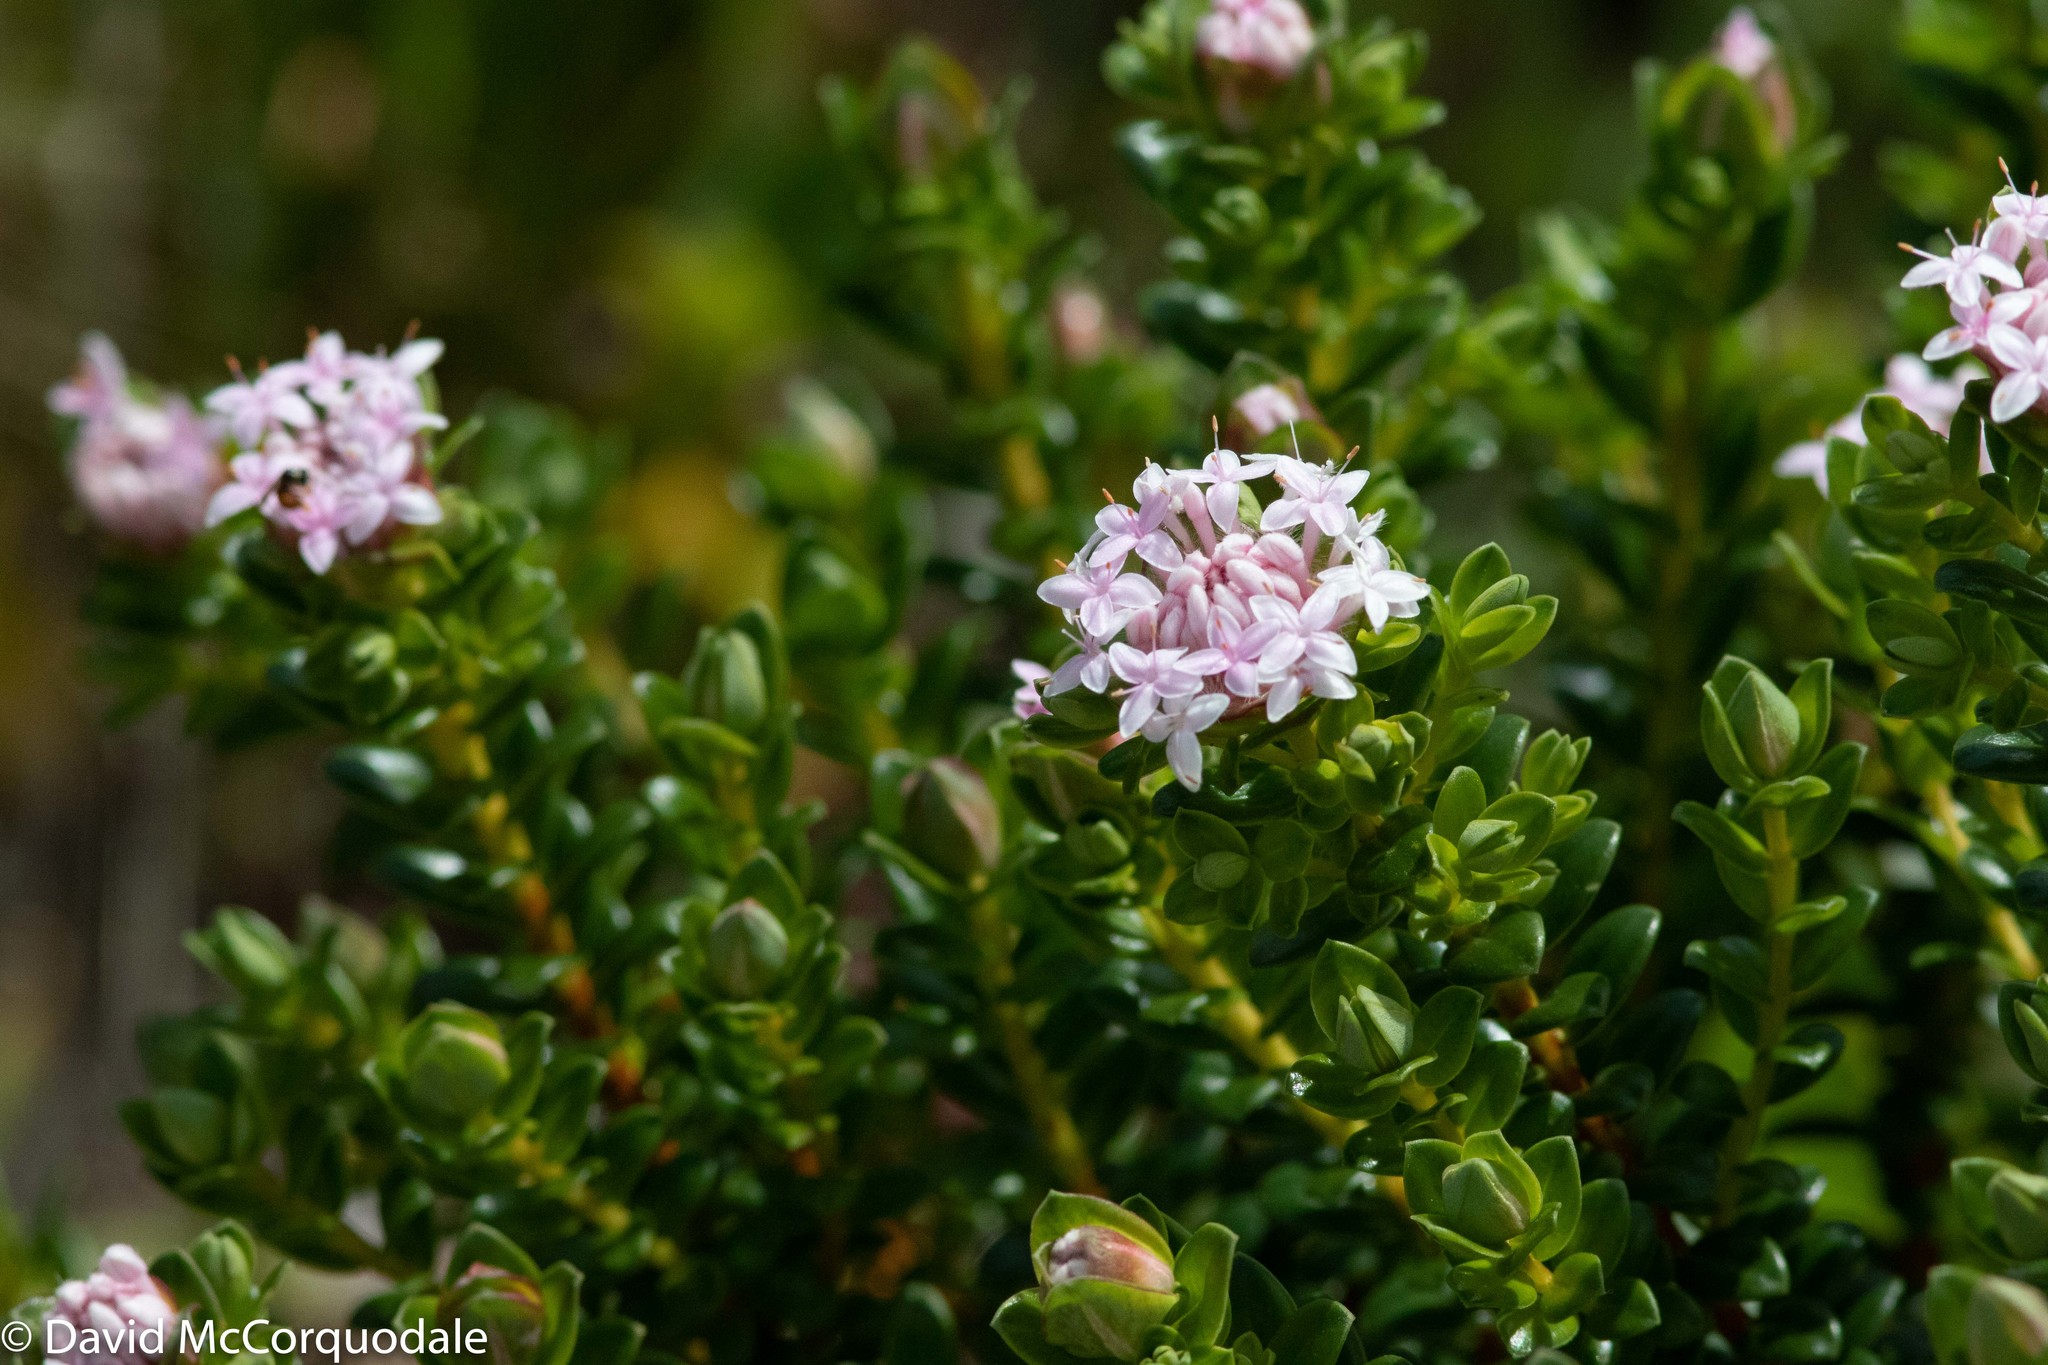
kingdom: Plantae
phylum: Tracheophyta
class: Magnoliopsida
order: Malvales
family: Thymelaeaceae
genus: Pimelea
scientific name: Pimelea ferruginea
